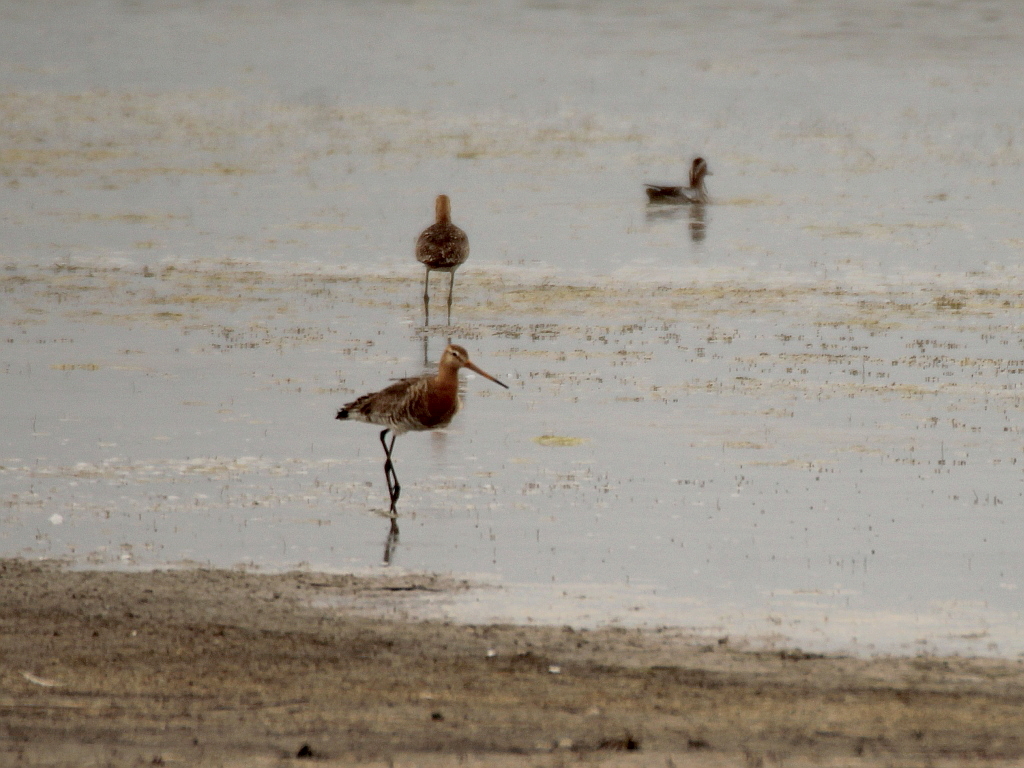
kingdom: Animalia
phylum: Chordata
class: Aves
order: Charadriiformes
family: Scolopacidae
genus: Limosa
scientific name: Limosa limosa
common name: Black-tailed godwit
